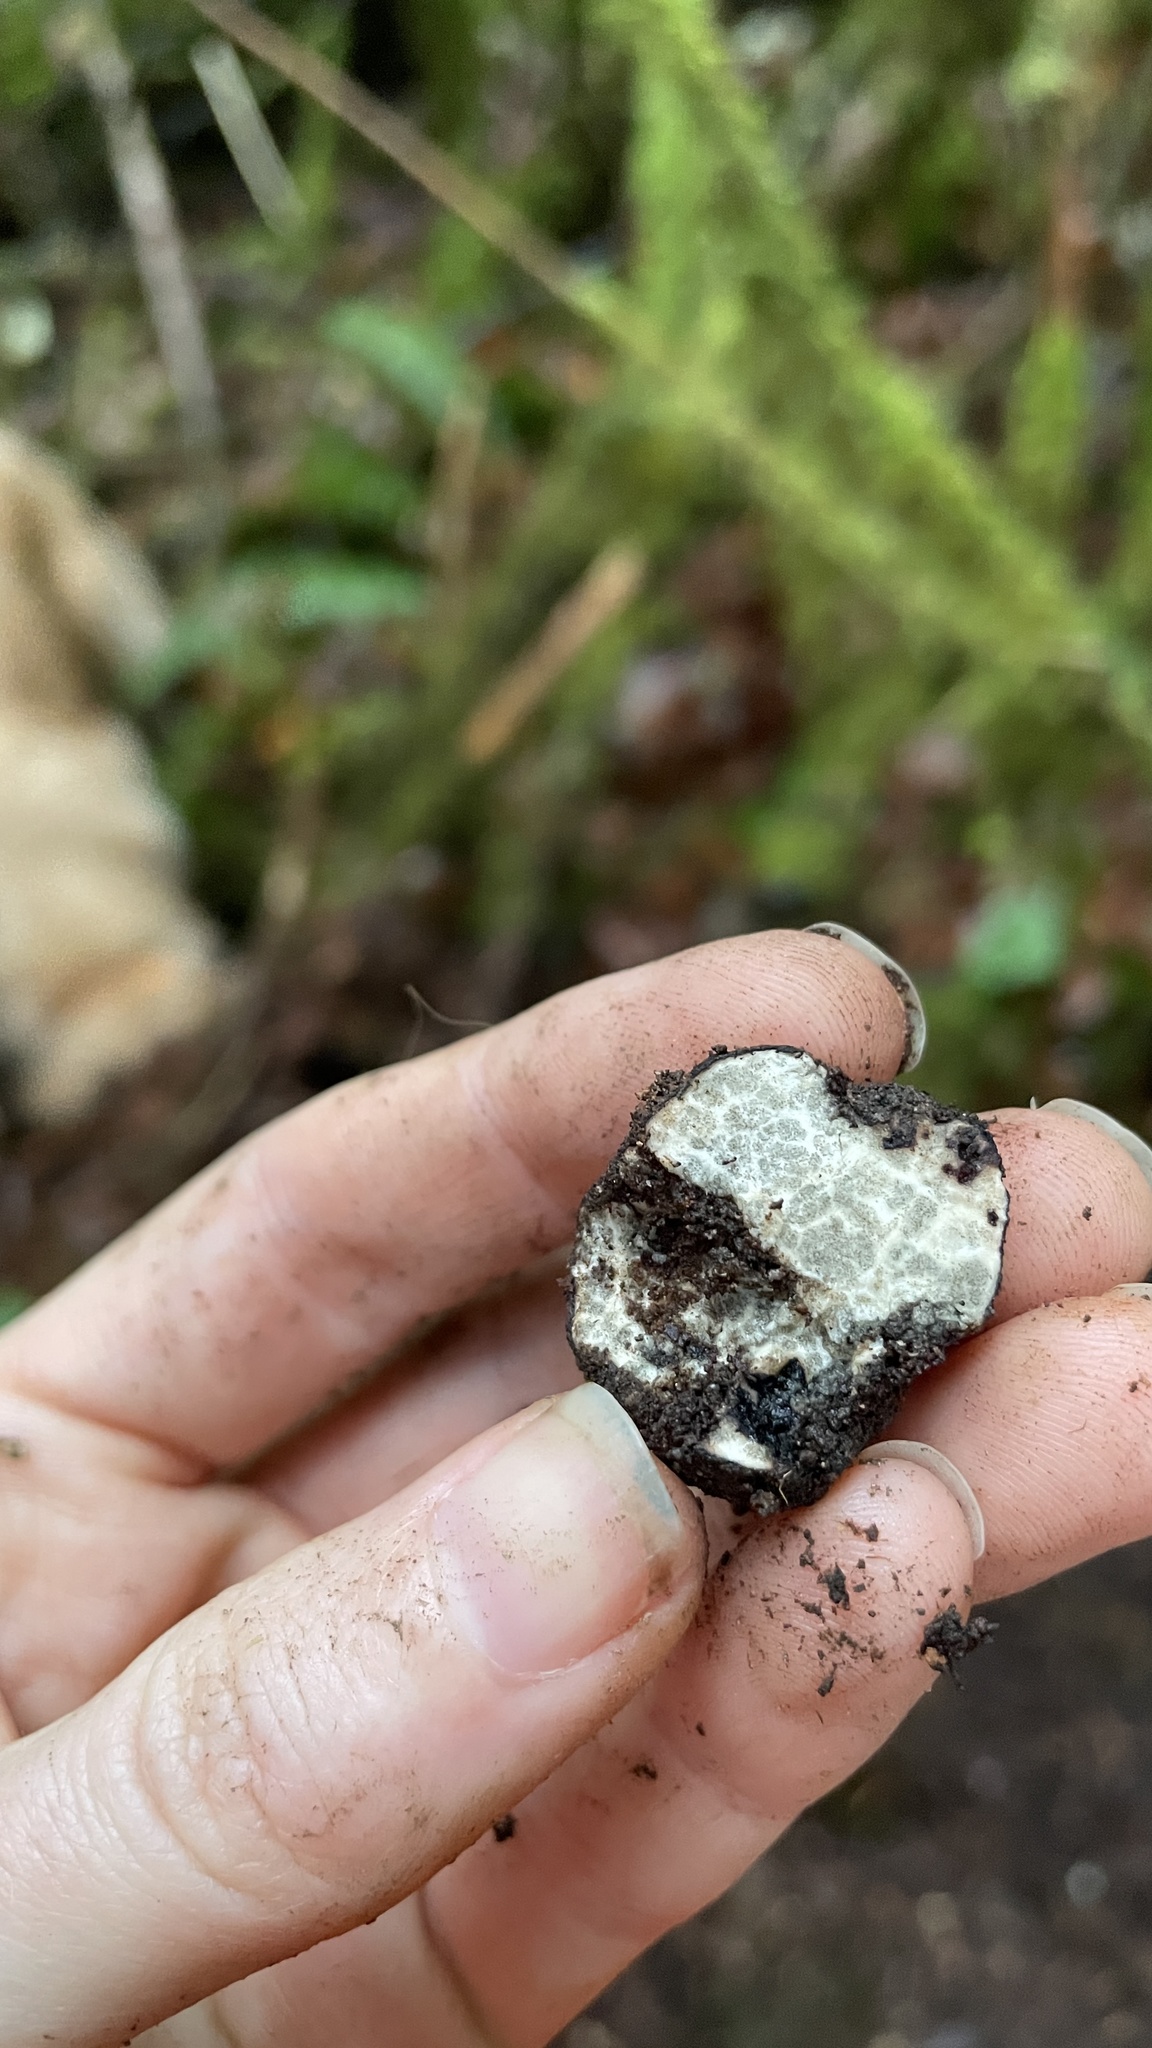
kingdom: Fungi
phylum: Ascomycota
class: Pezizomycetes
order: Pezizales
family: Morchellaceae
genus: Leucangium
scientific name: Leucangium carthusianum
